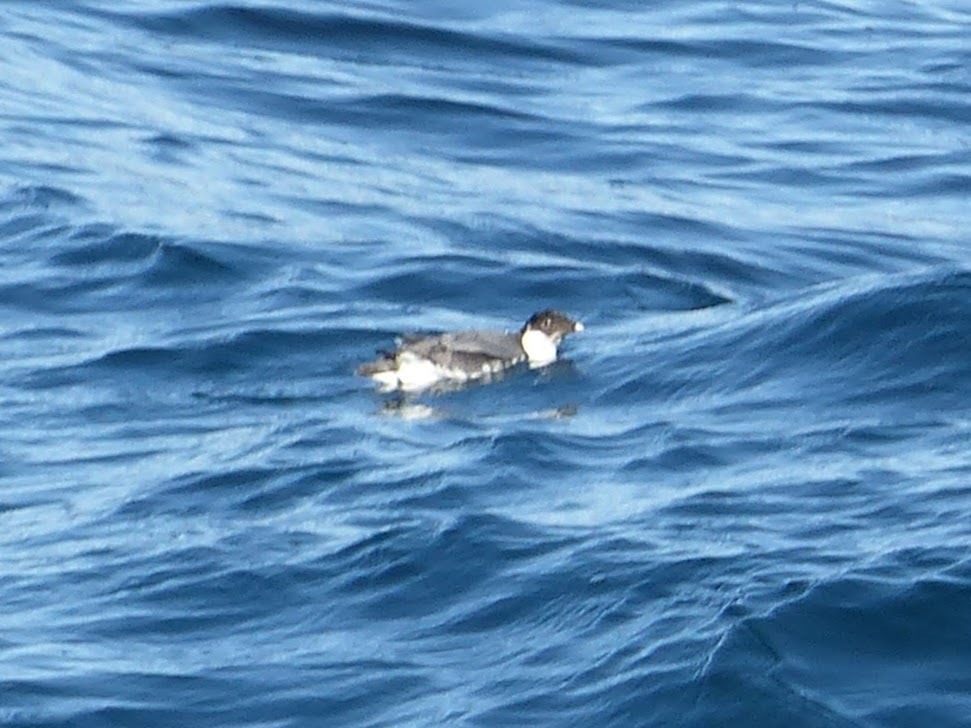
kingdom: Animalia
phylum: Chordata
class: Aves
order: Charadriiformes
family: Alcidae
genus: Synthliboramphus
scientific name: Synthliboramphus antiquus
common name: Ancient murrelet
